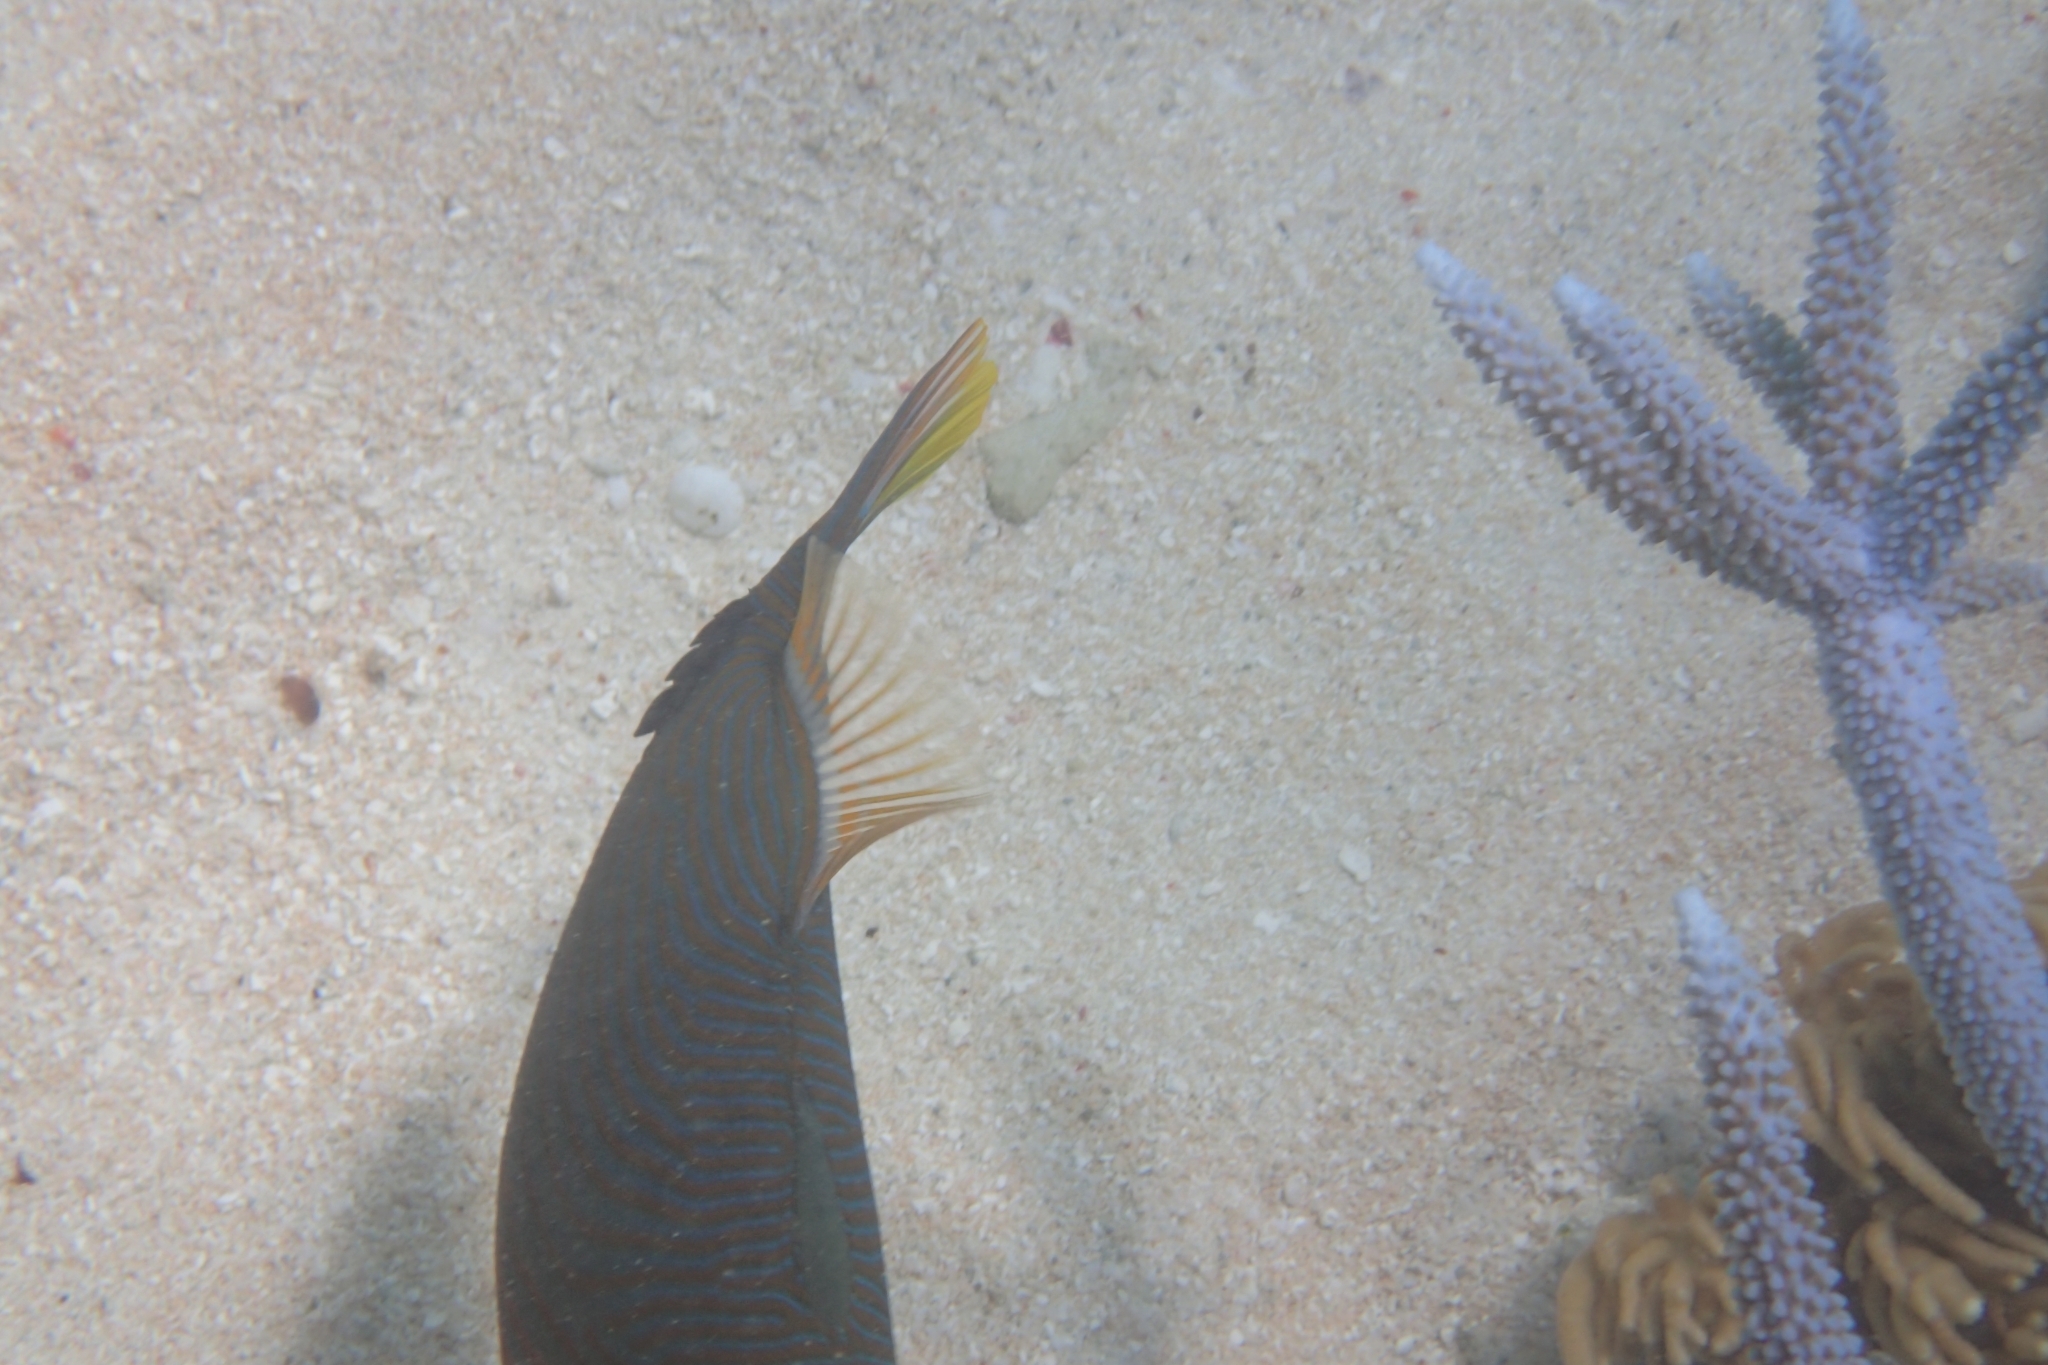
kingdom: Animalia
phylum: Chordata
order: Tetraodontiformes
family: Balistidae
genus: Balistapus
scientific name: Balistapus undulatus
